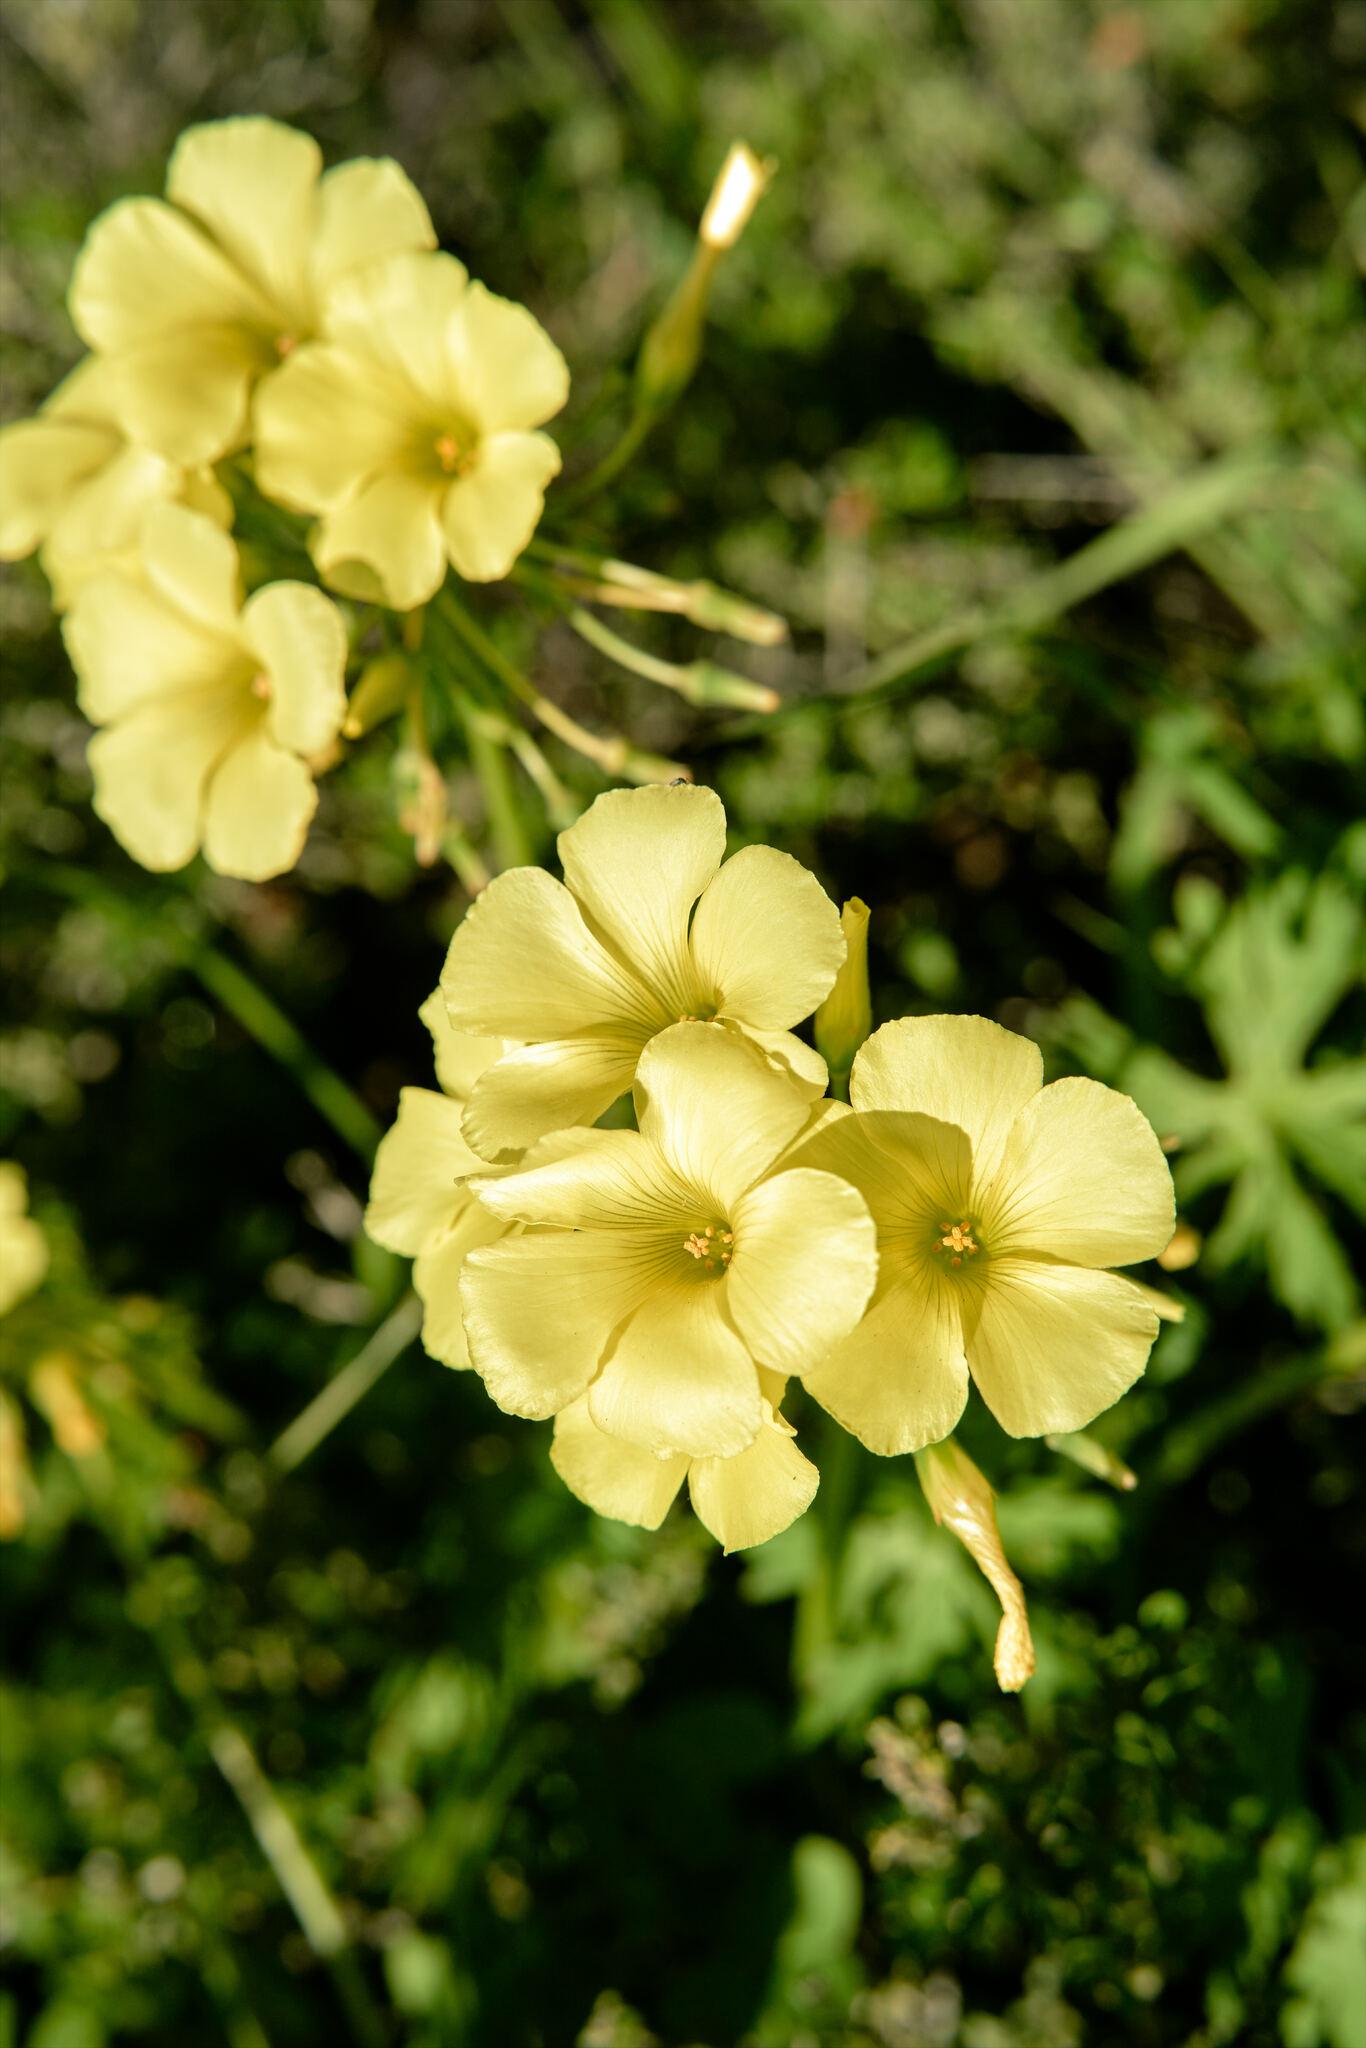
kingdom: Plantae
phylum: Tracheophyta
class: Magnoliopsida
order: Oxalidales
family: Oxalidaceae
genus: Oxalis
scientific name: Oxalis pes-caprae
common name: Bermuda-buttercup
